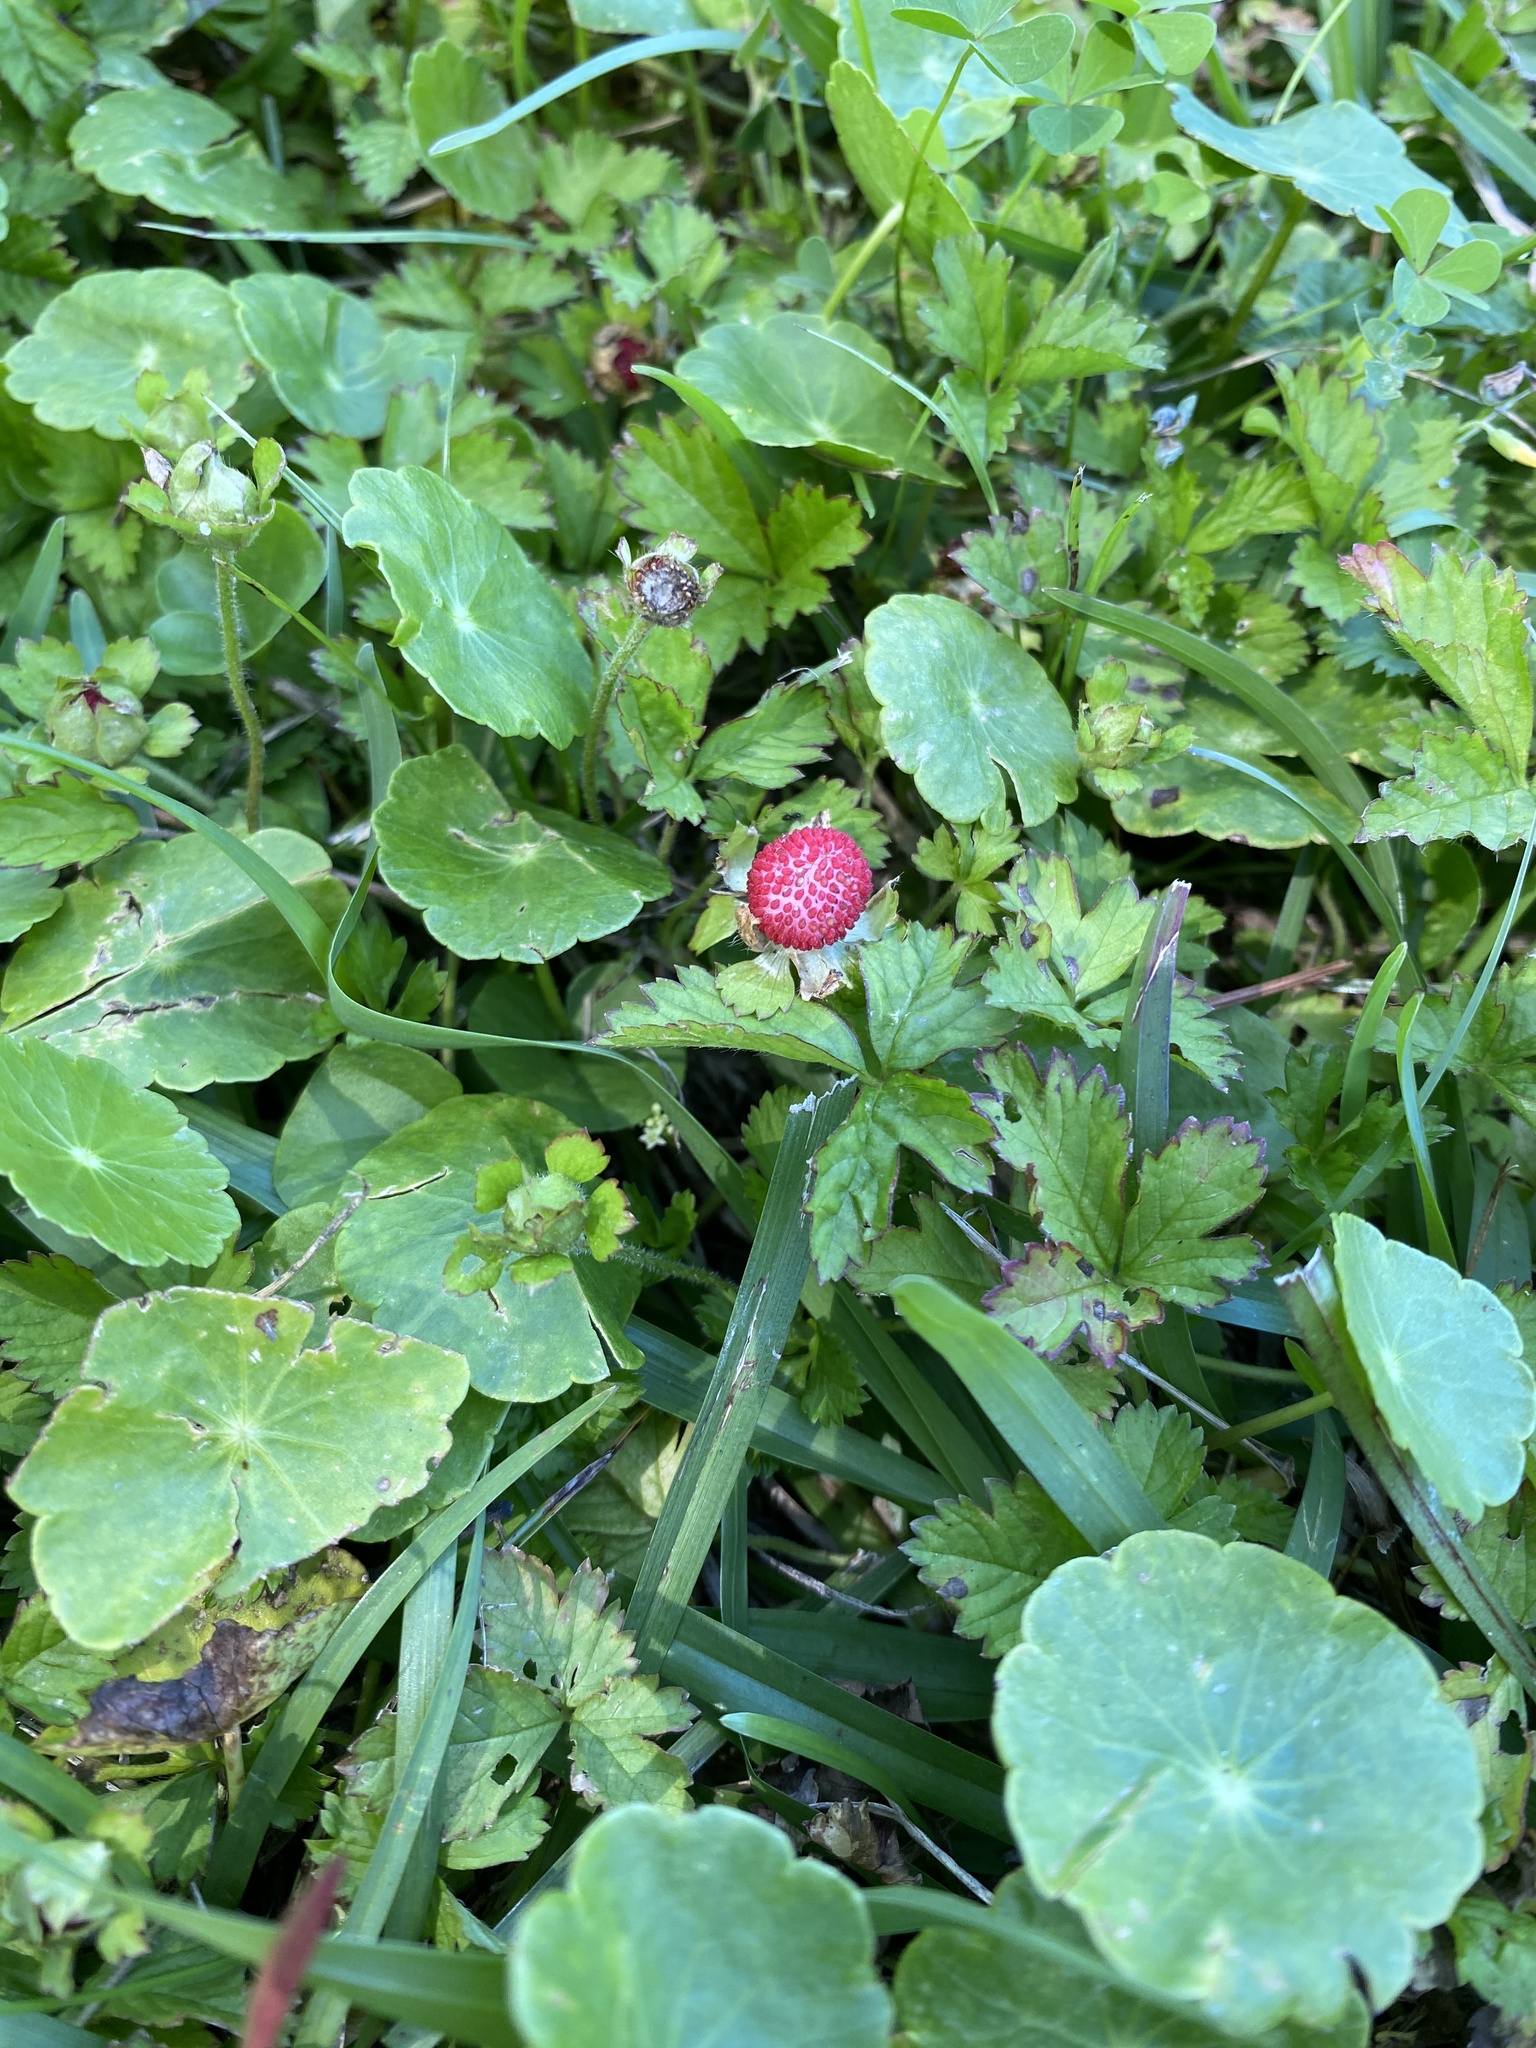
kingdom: Plantae
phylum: Tracheophyta
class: Magnoliopsida
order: Rosales
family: Rosaceae
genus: Potentilla
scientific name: Potentilla indica
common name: Yellow-flowered strawberry
